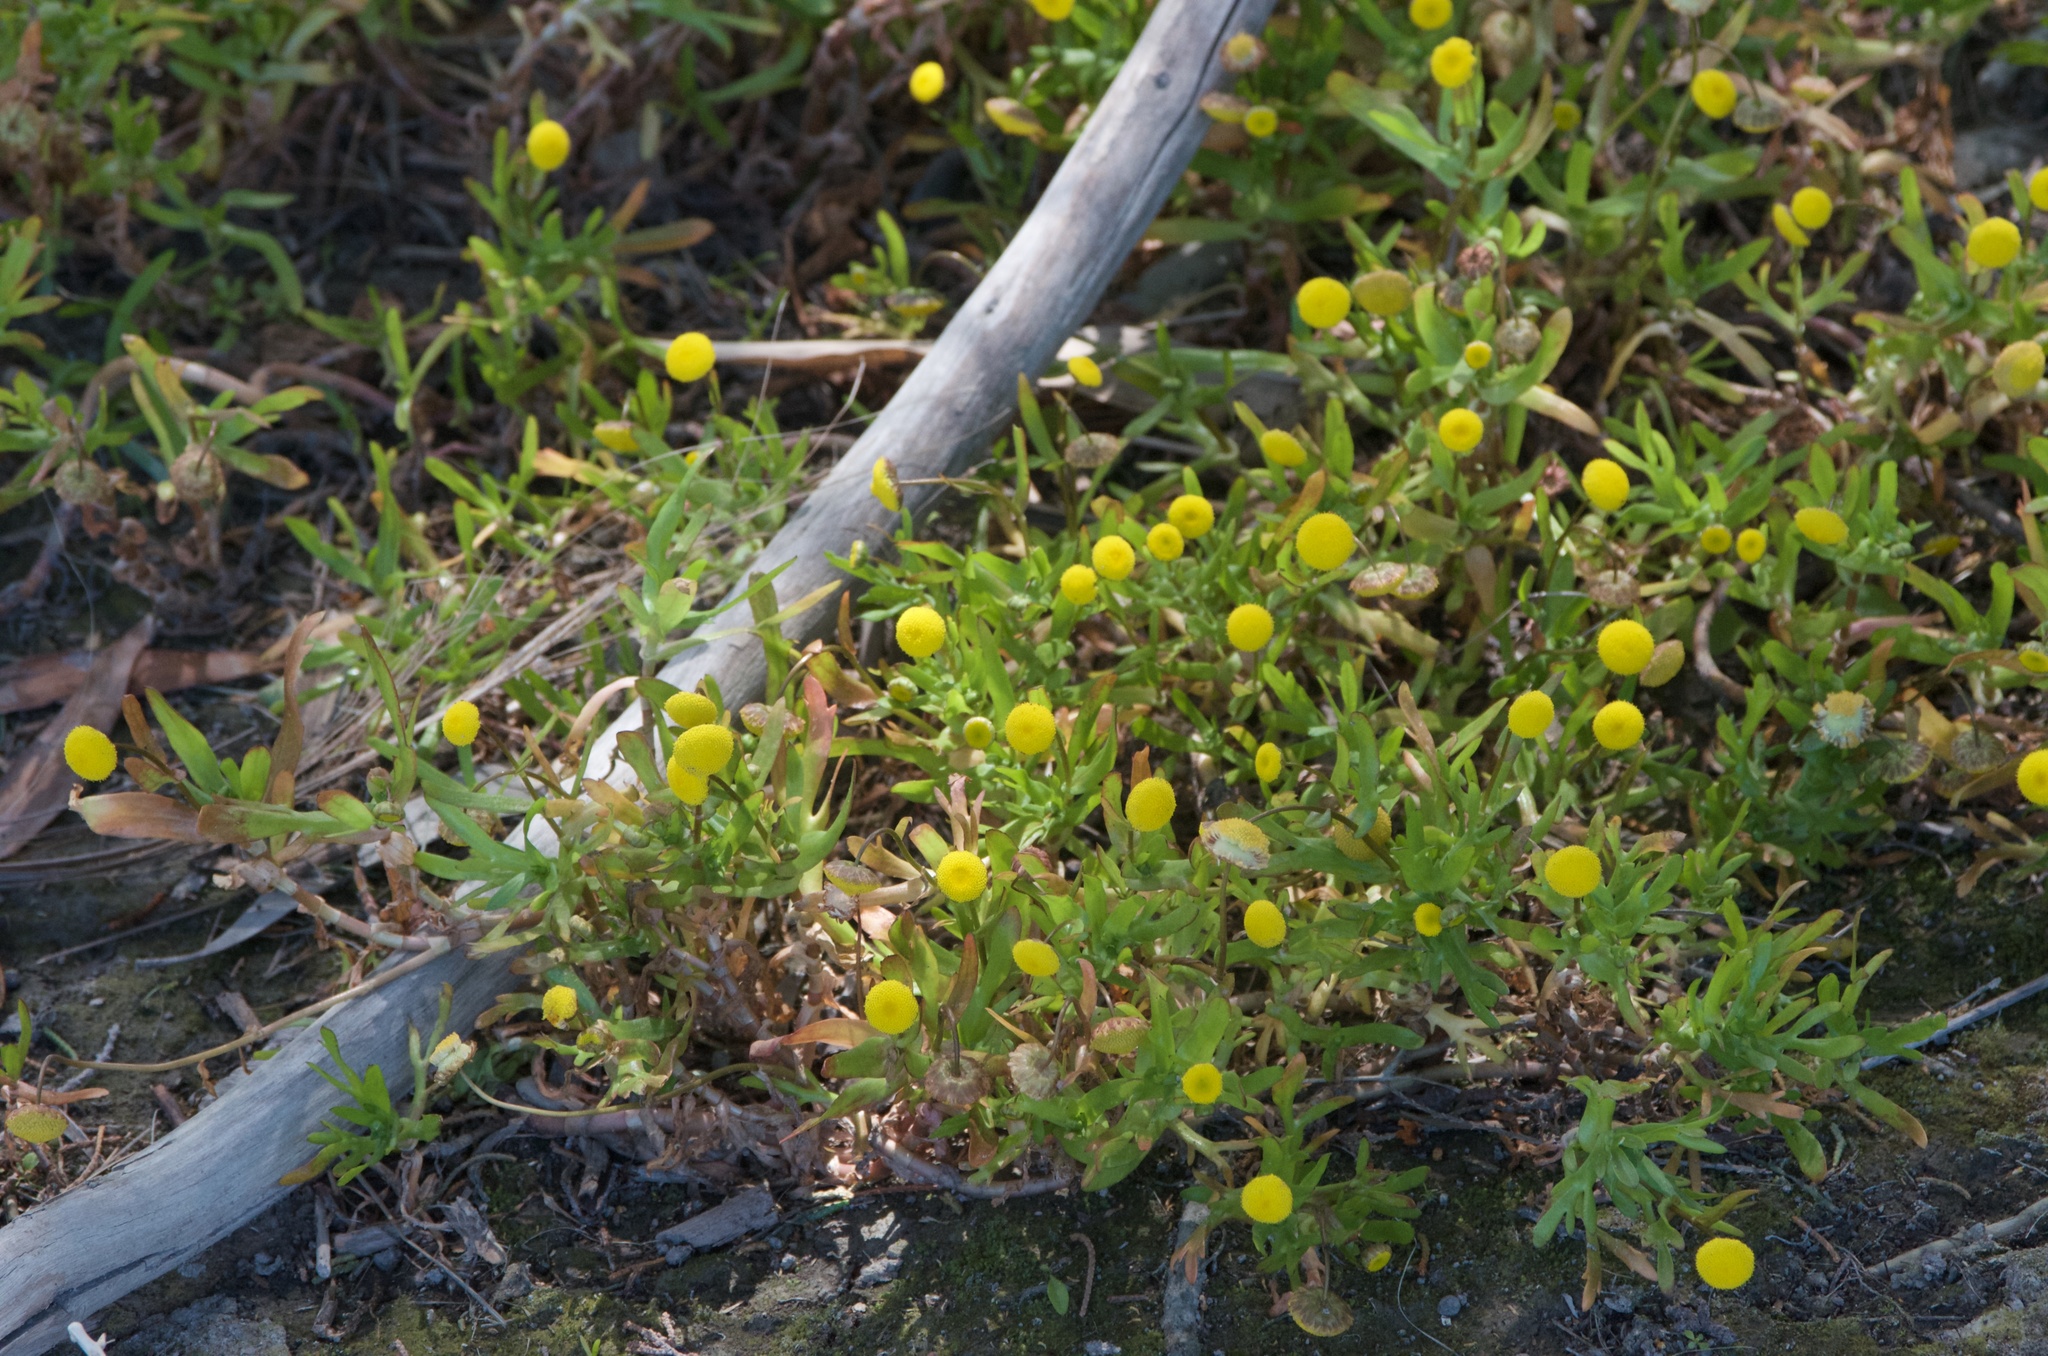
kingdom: Plantae
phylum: Tracheophyta
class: Magnoliopsida
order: Asterales
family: Asteraceae
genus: Cotula
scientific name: Cotula coronopifolia
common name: Buttonweed
